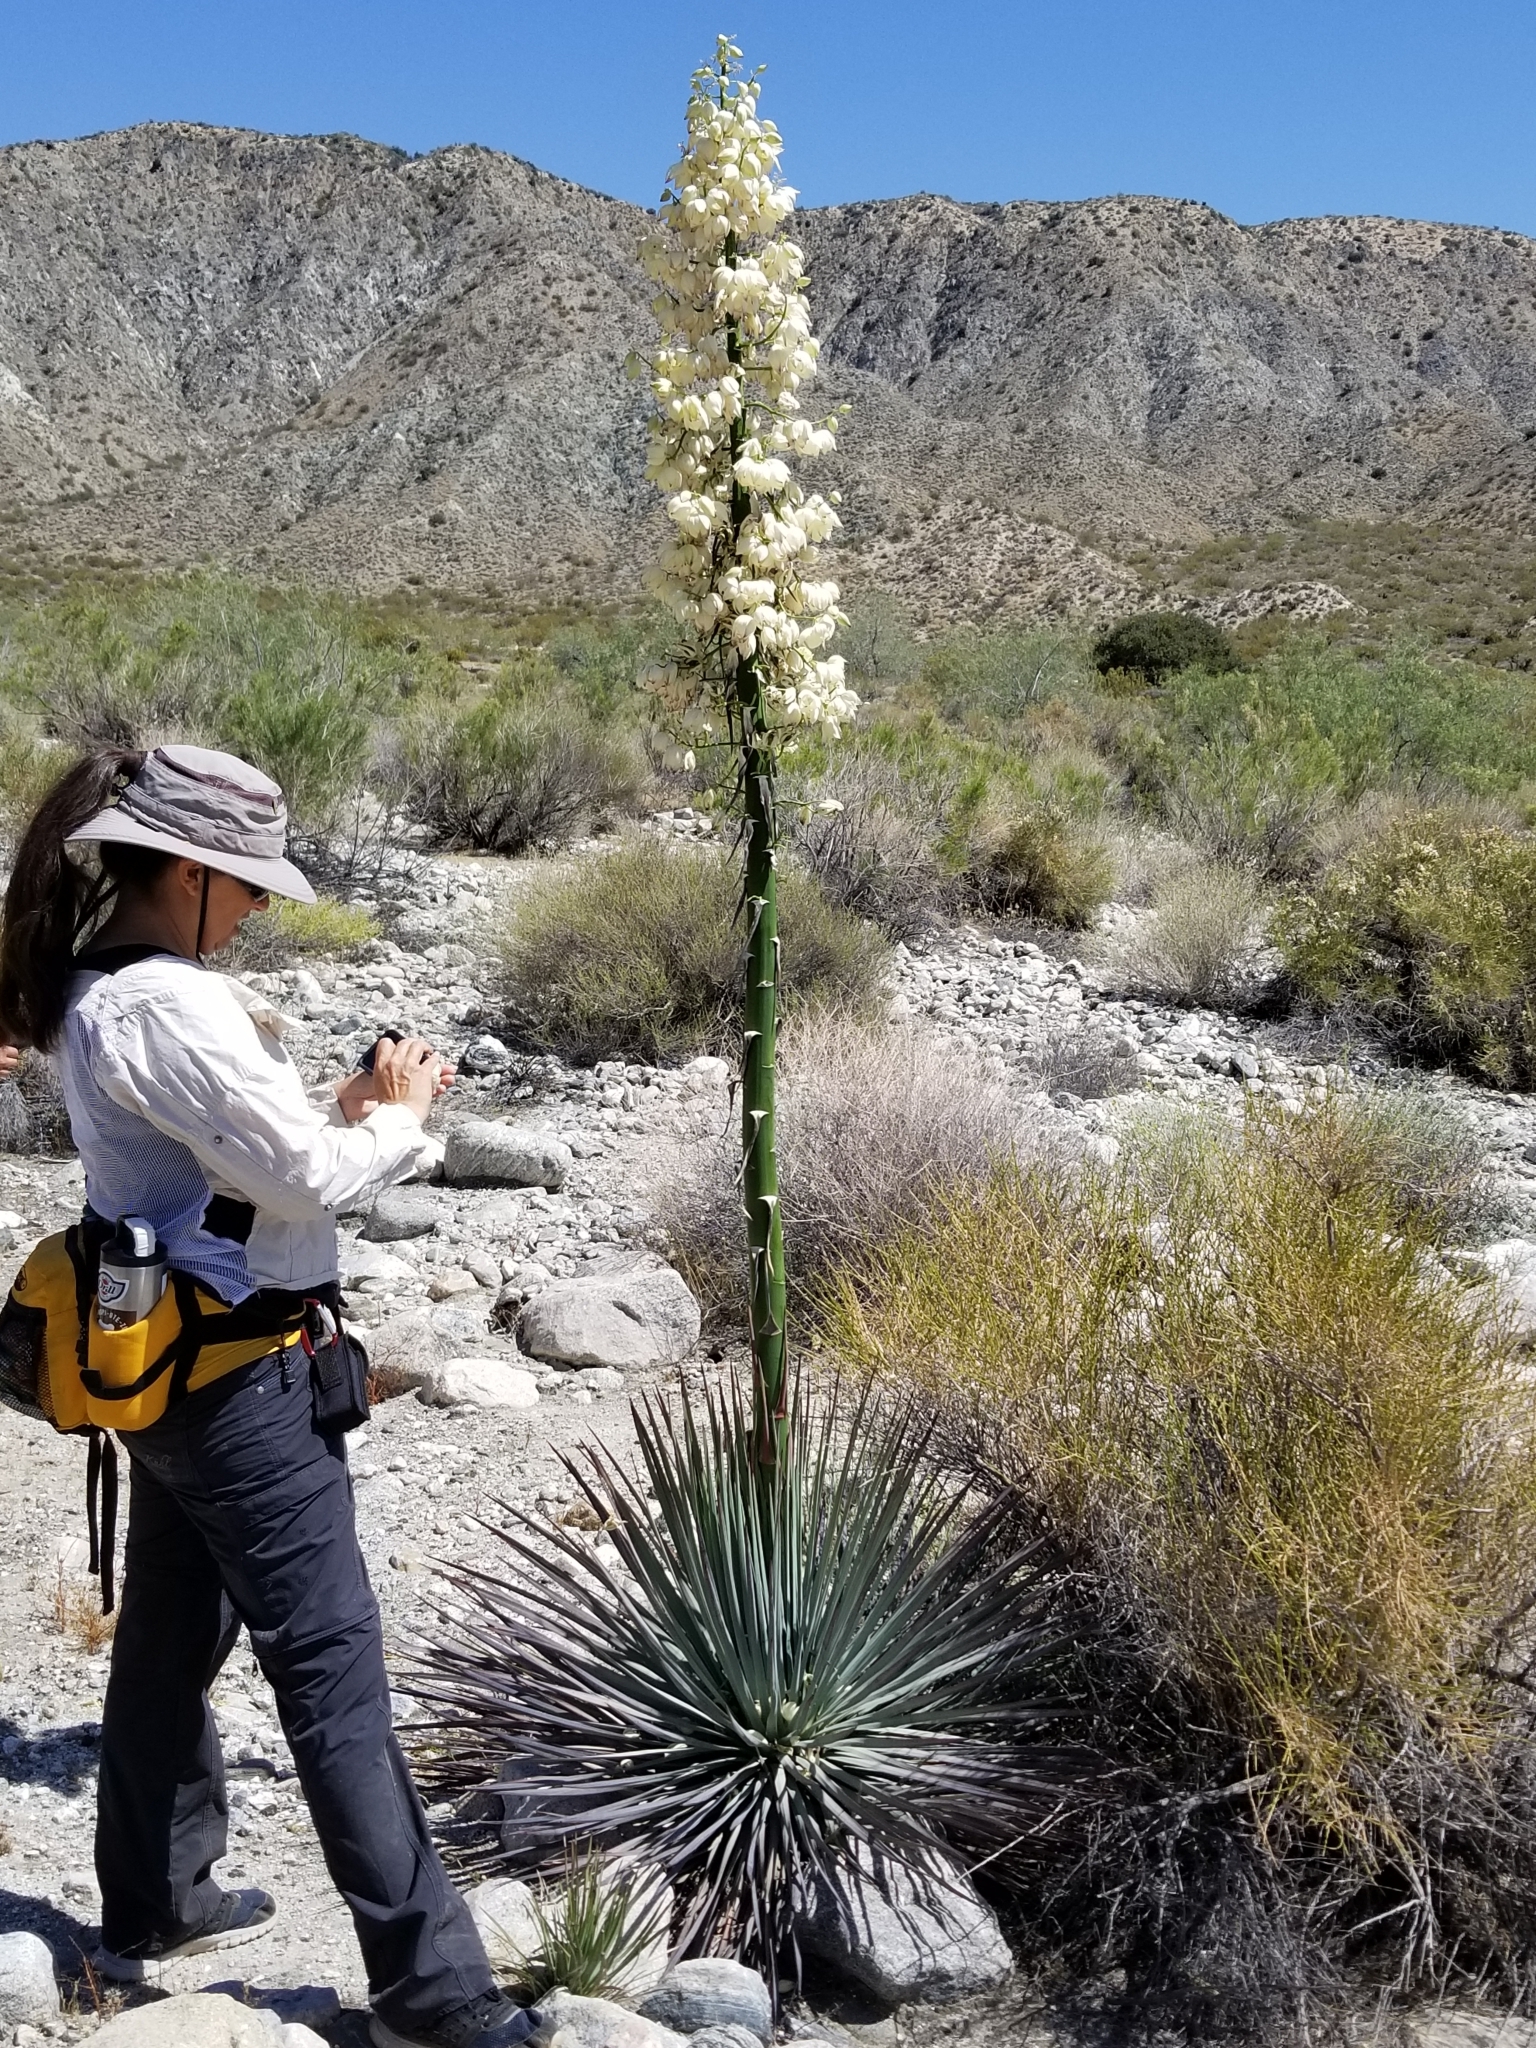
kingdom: Plantae
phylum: Tracheophyta
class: Liliopsida
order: Asparagales
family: Asparagaceae
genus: Hesperoyucca
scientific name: Hesperoyucca whipplei
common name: Our lord's-candle
